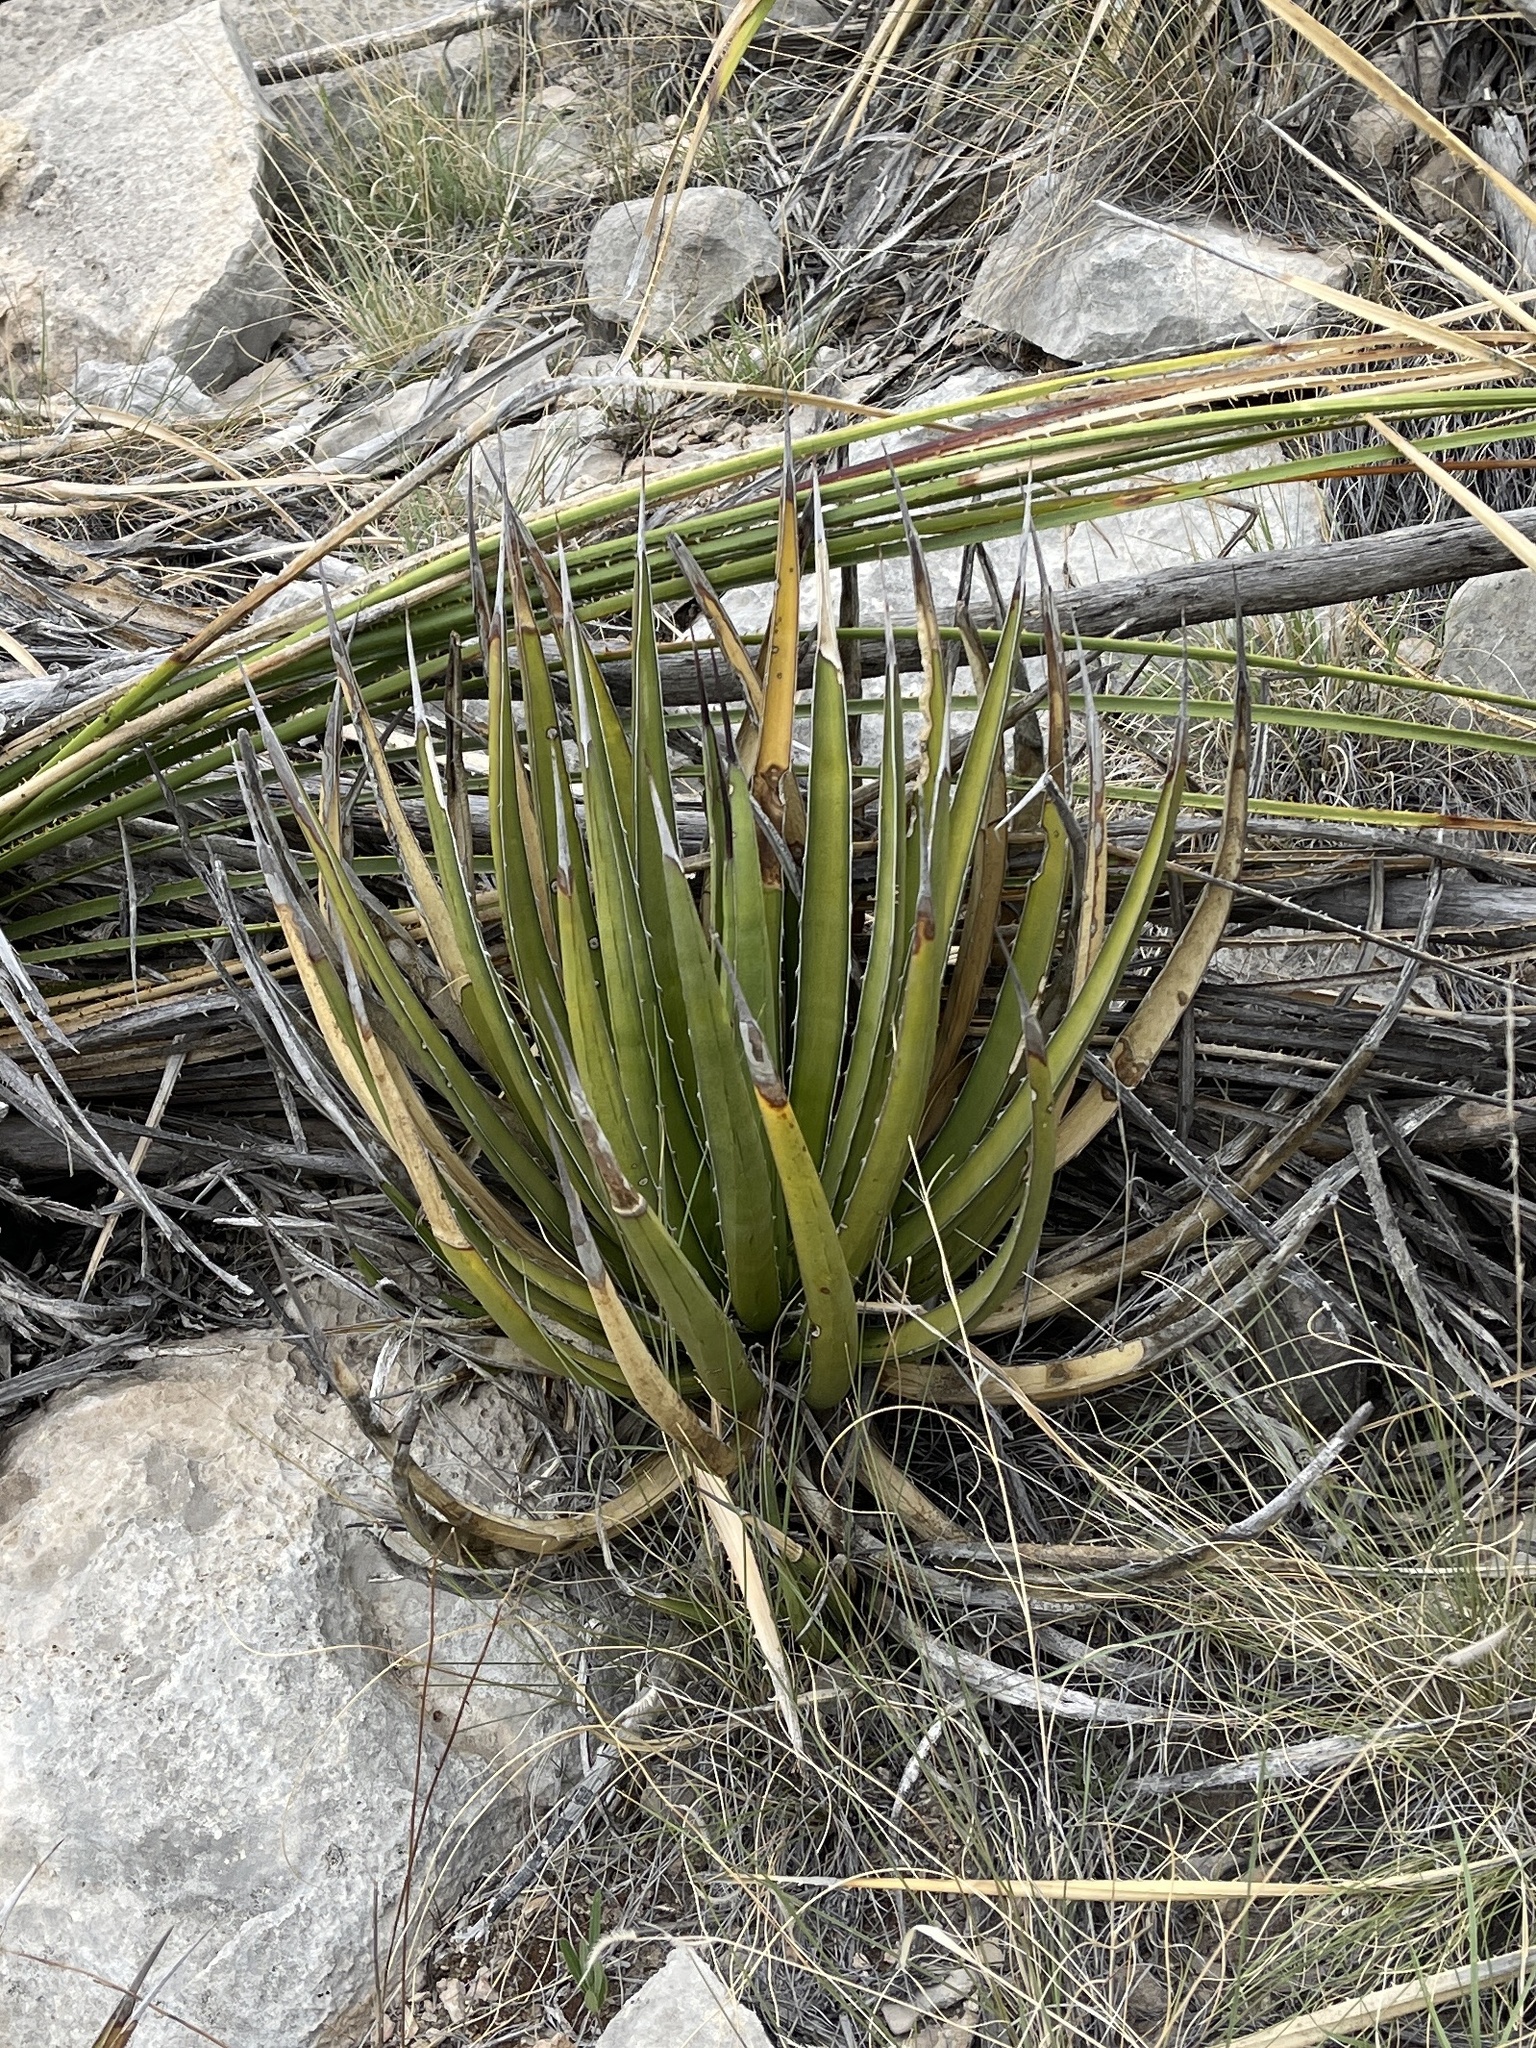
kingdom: Plantae
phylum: Tracheophyta
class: Liliopsida
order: Asparagales
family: Asparagaceae
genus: Agave
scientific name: Agave lechuguilla
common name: Lecheguilla agave
